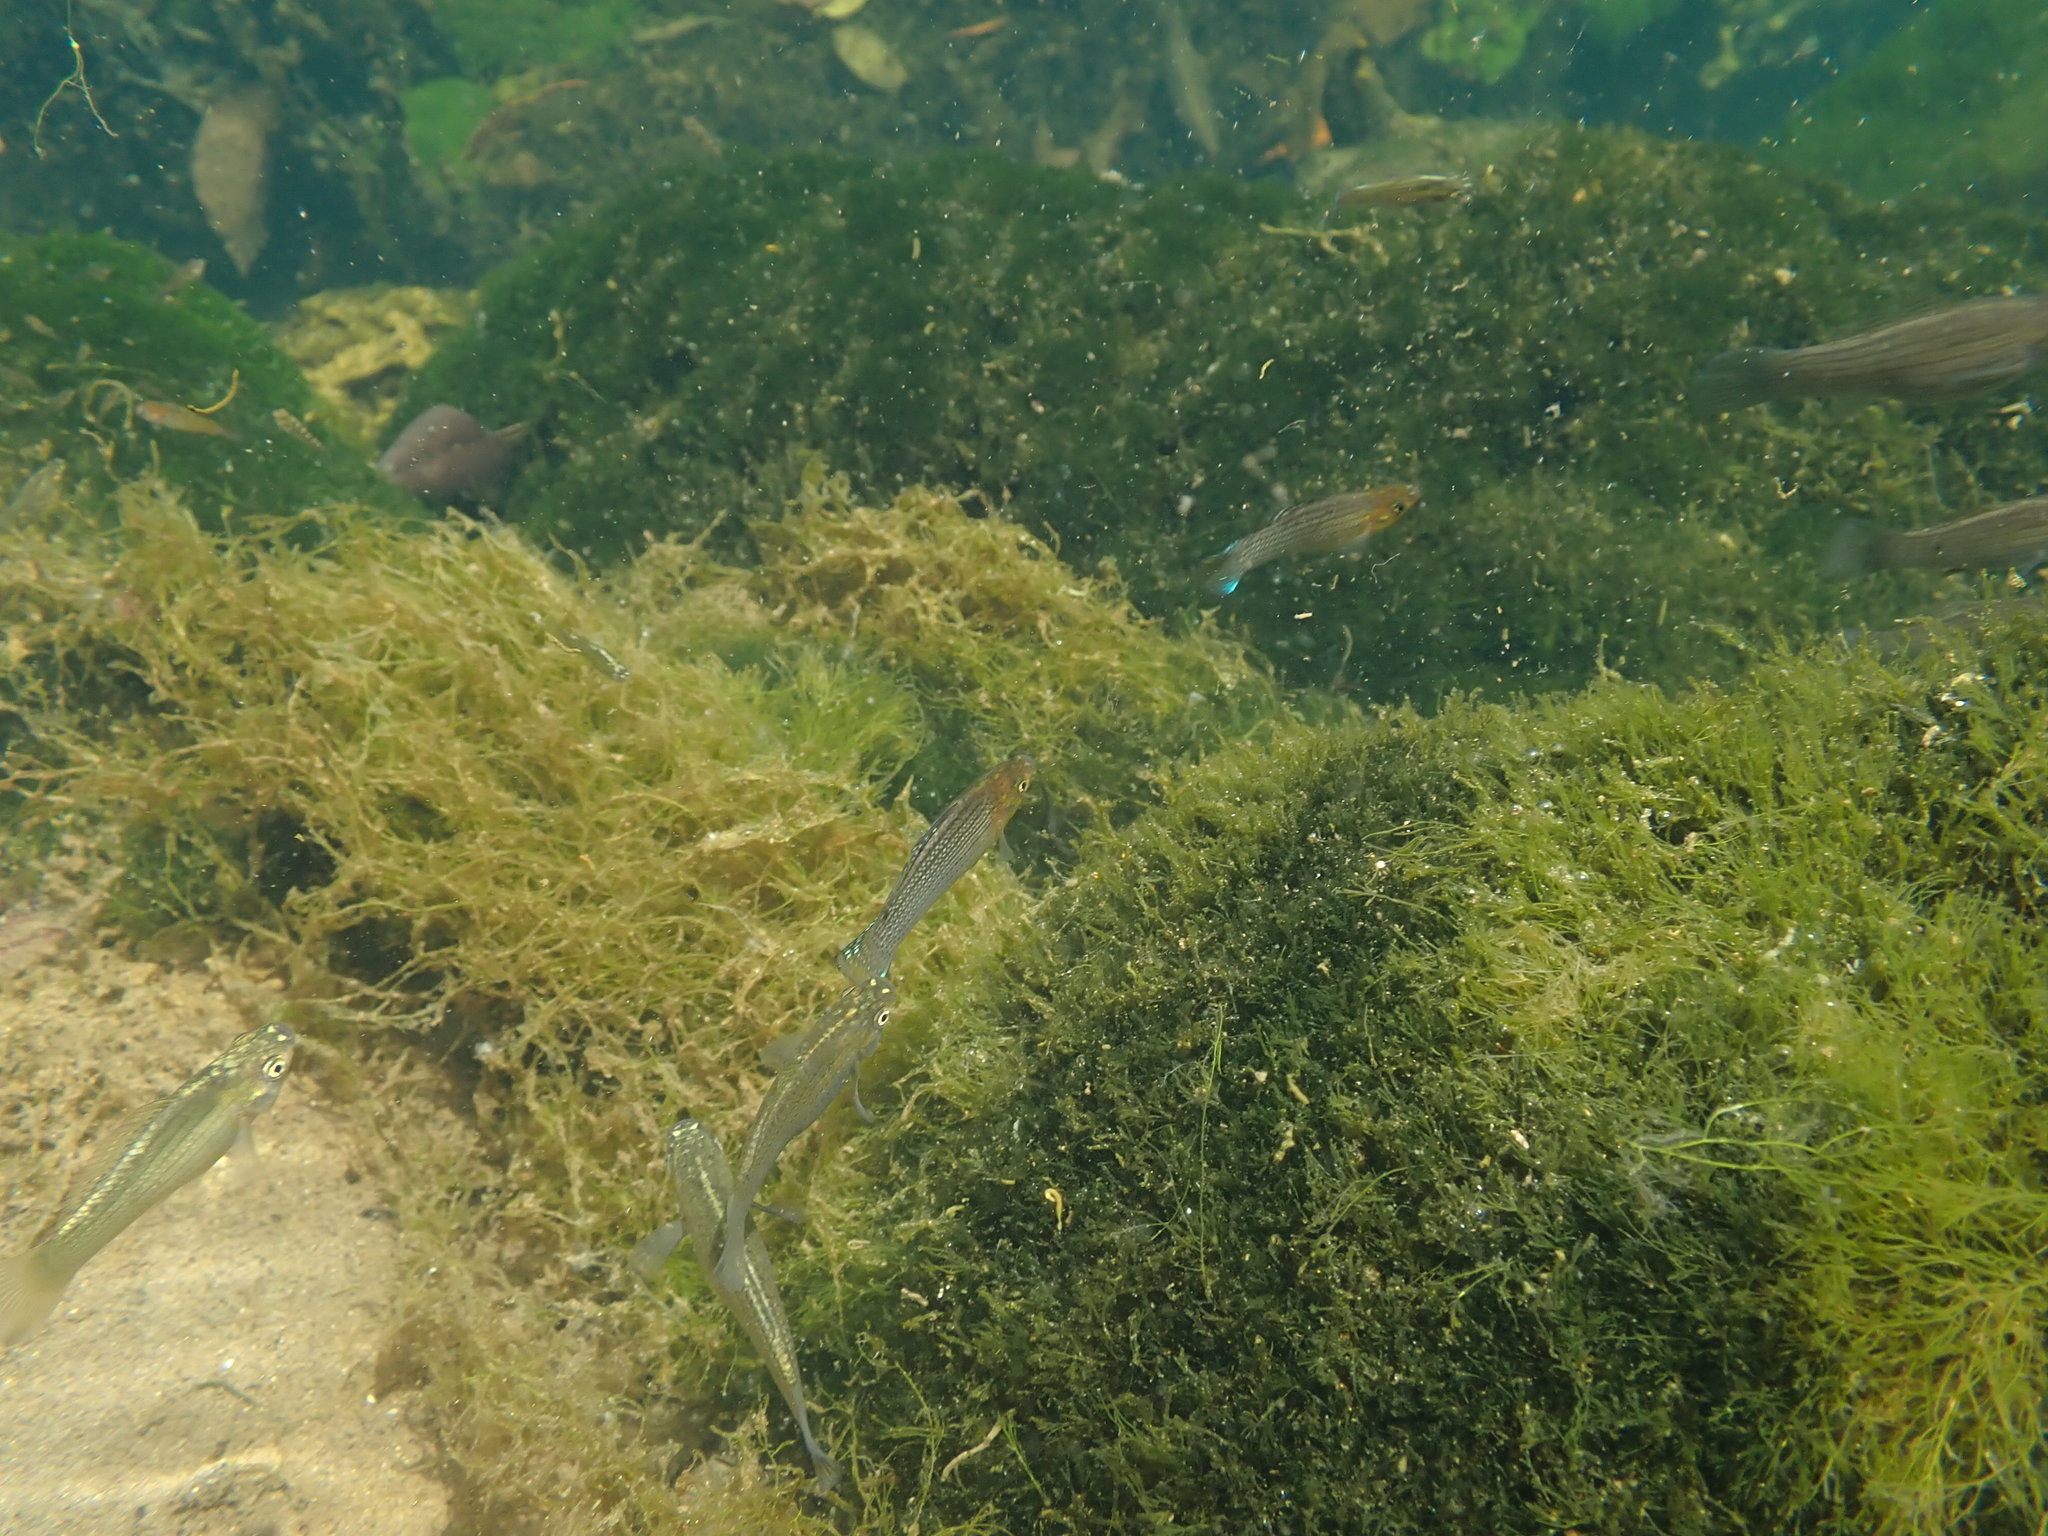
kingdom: Animalia
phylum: Chordata
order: Cyprinodontiformes
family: Poeciliidae
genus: Poecilia
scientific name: Poecilia velifera
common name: Sail-fin molly
